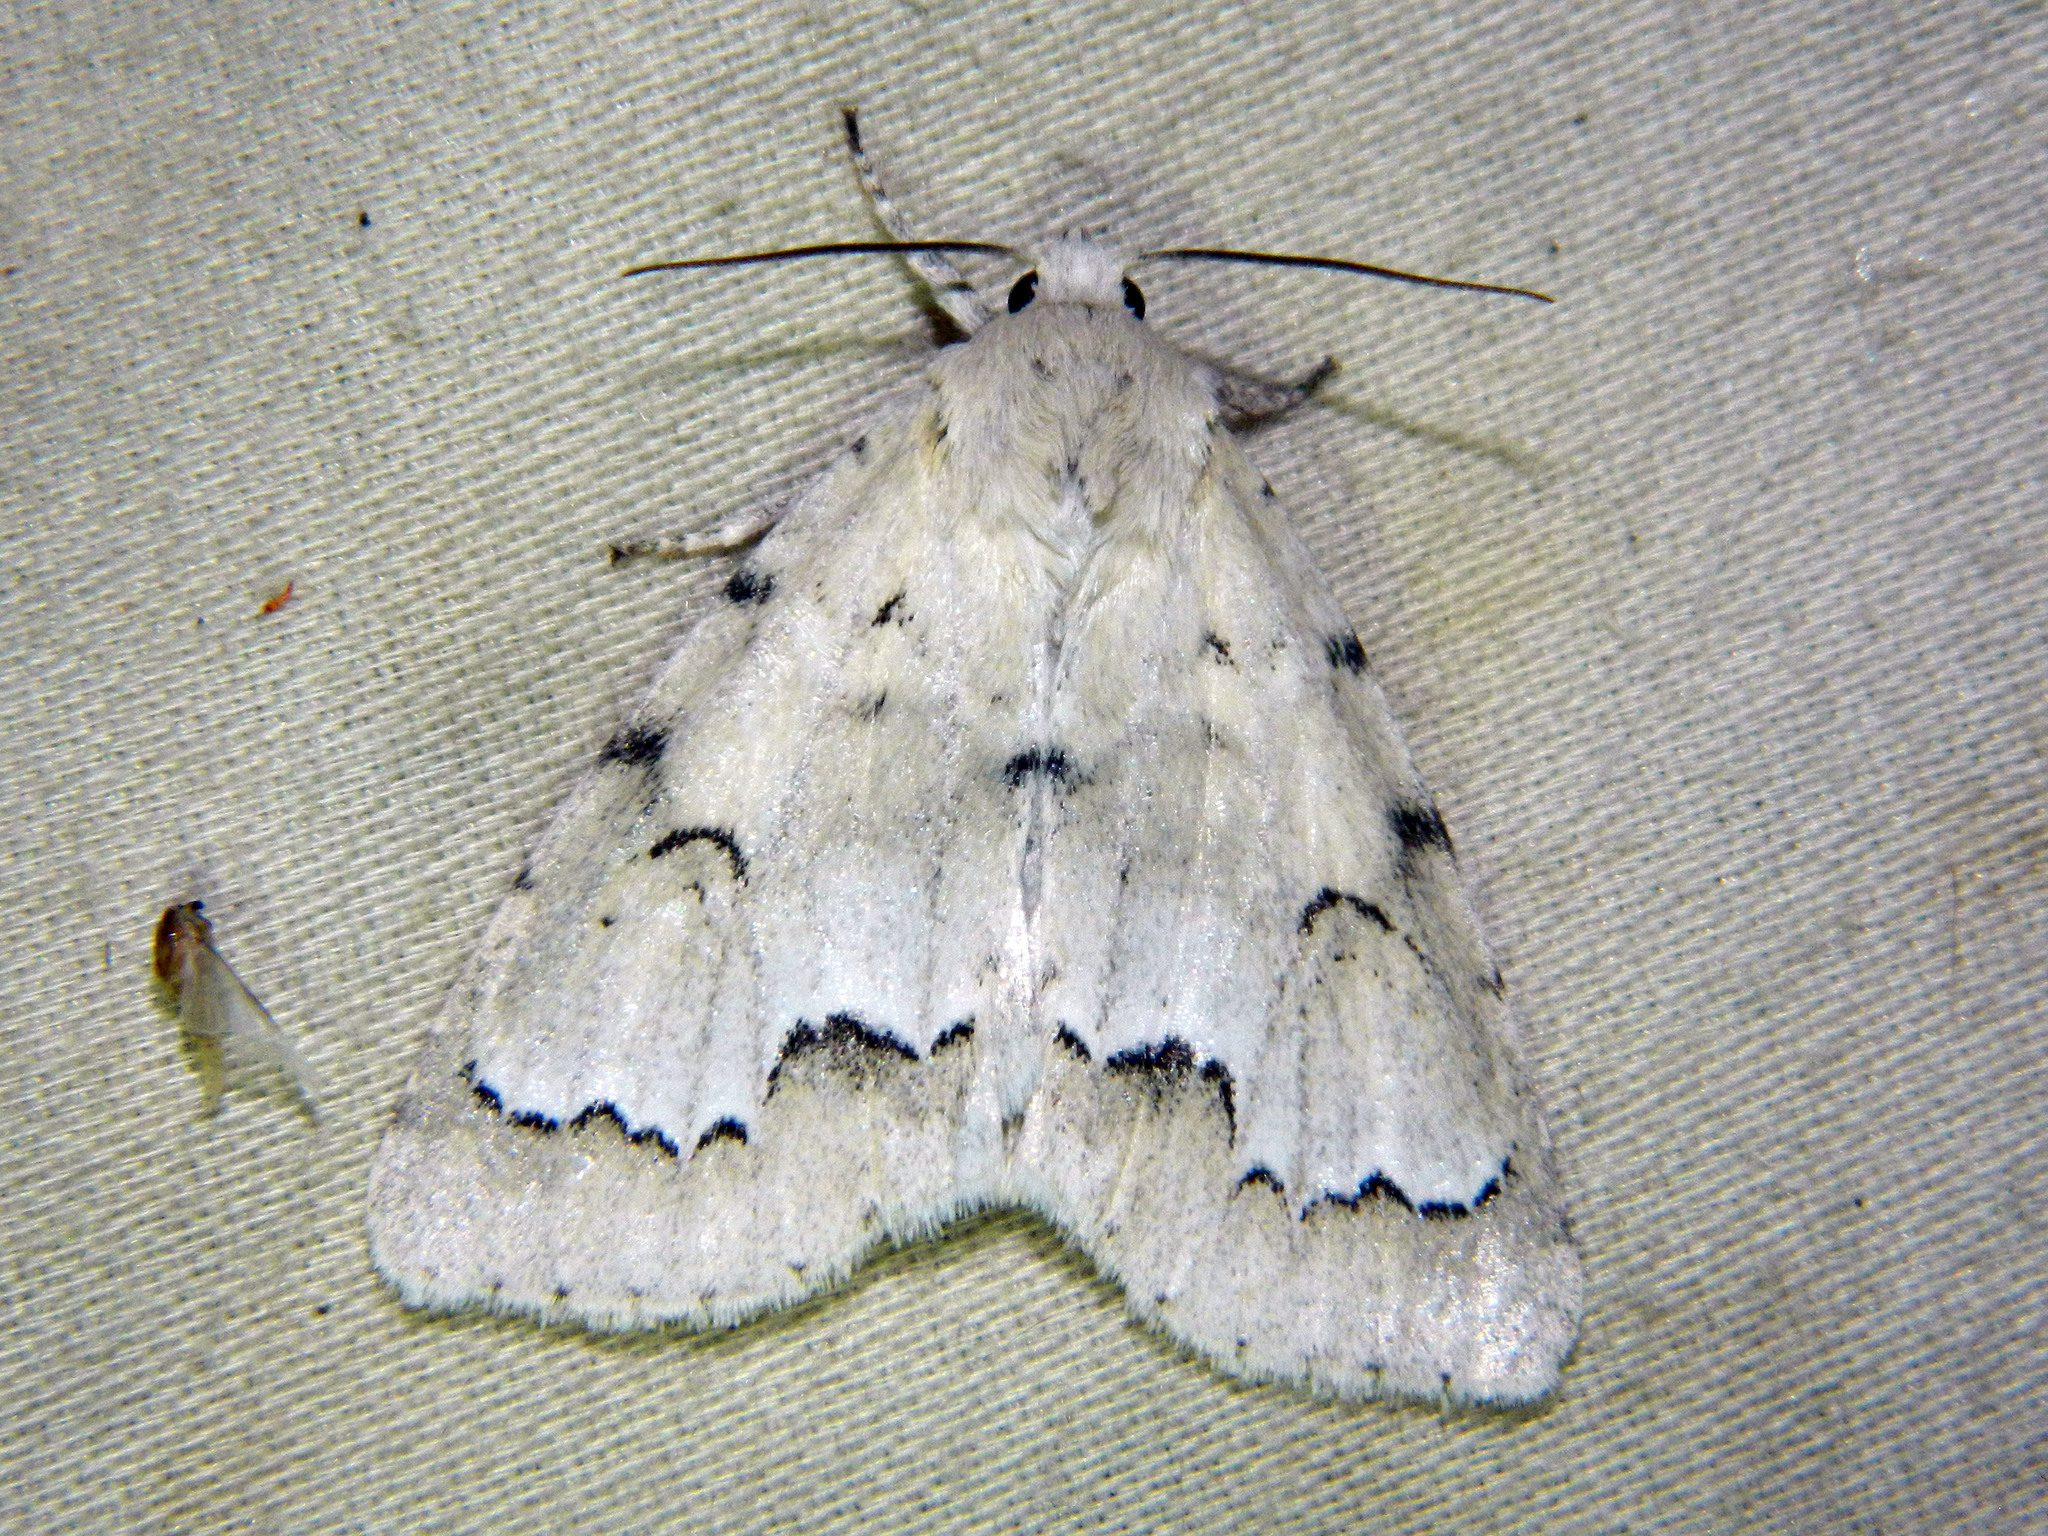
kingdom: Animalia
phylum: Arthropoda
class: Insecta
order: Lepidoptera
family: Noctuidae
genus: Acronicta
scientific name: Acronicta innotata
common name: Unmarked dagger
